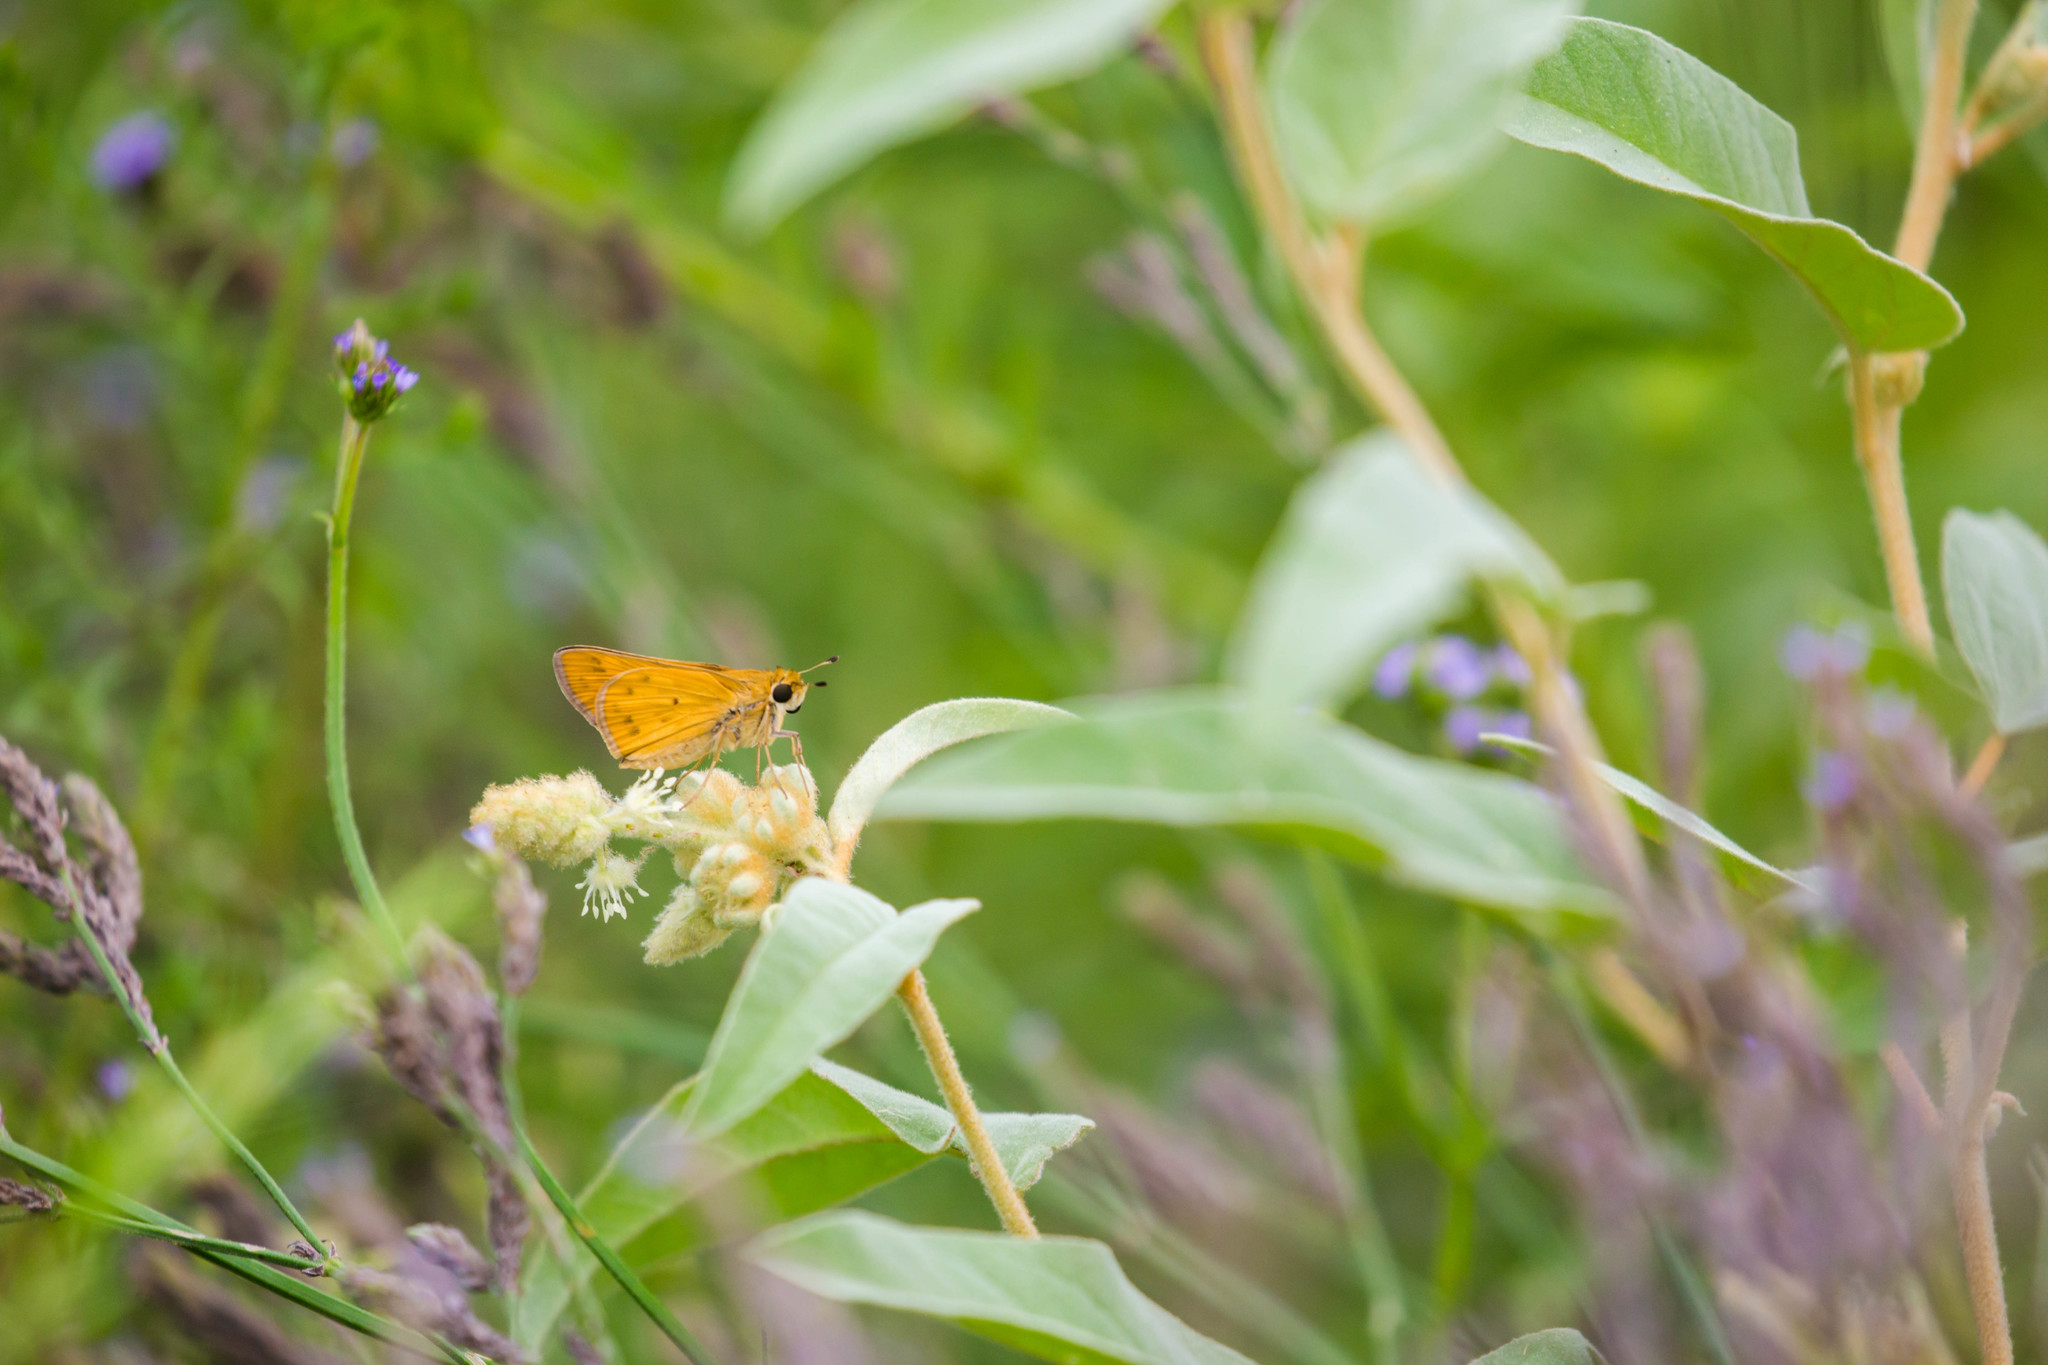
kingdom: Animalia
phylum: Arthropoda
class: Insecta
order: Lepidoptera
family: Hesperiidae
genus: Hylephila
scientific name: Hylephila phyleus
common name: Fiery skipper
